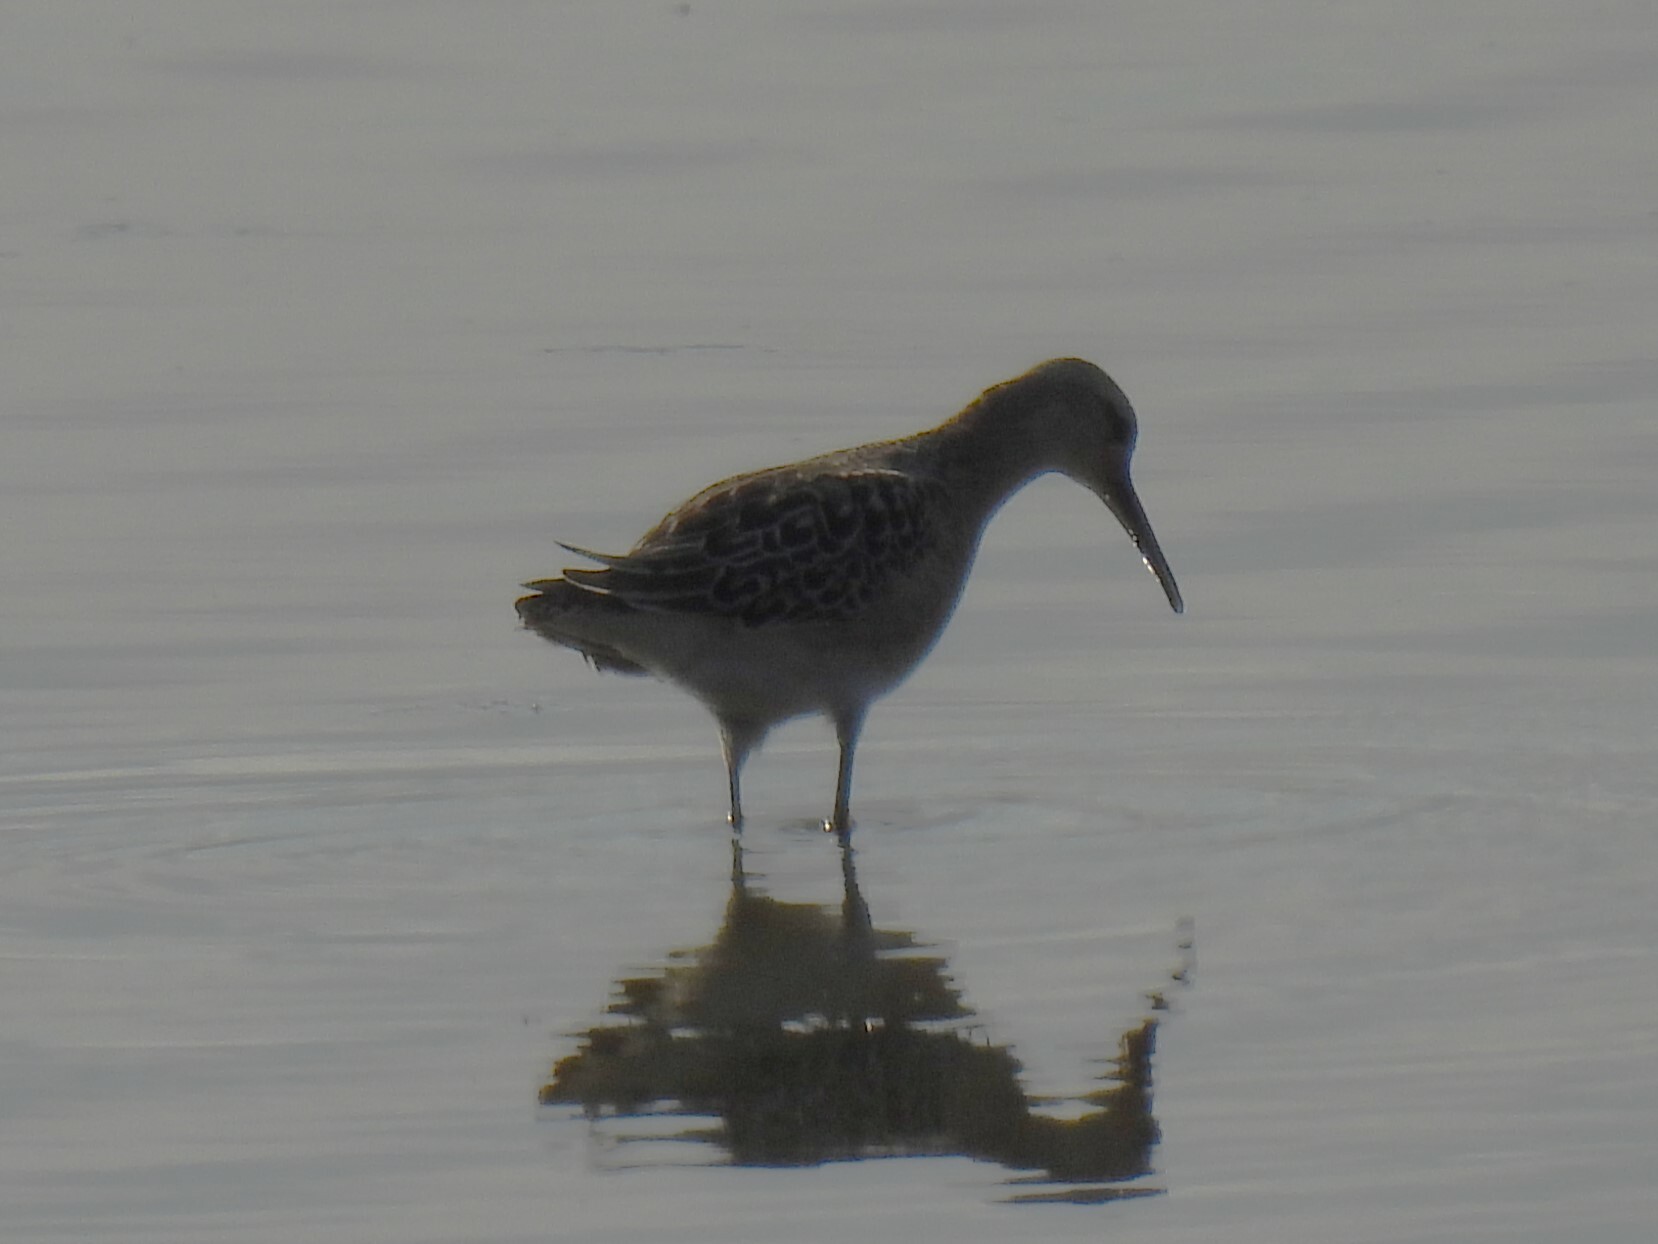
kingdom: Animalia
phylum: Chordata
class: Aves
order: Charadriiformes
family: Scolopacidae
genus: Calidris
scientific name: Calidris pugnax
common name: Ruff
